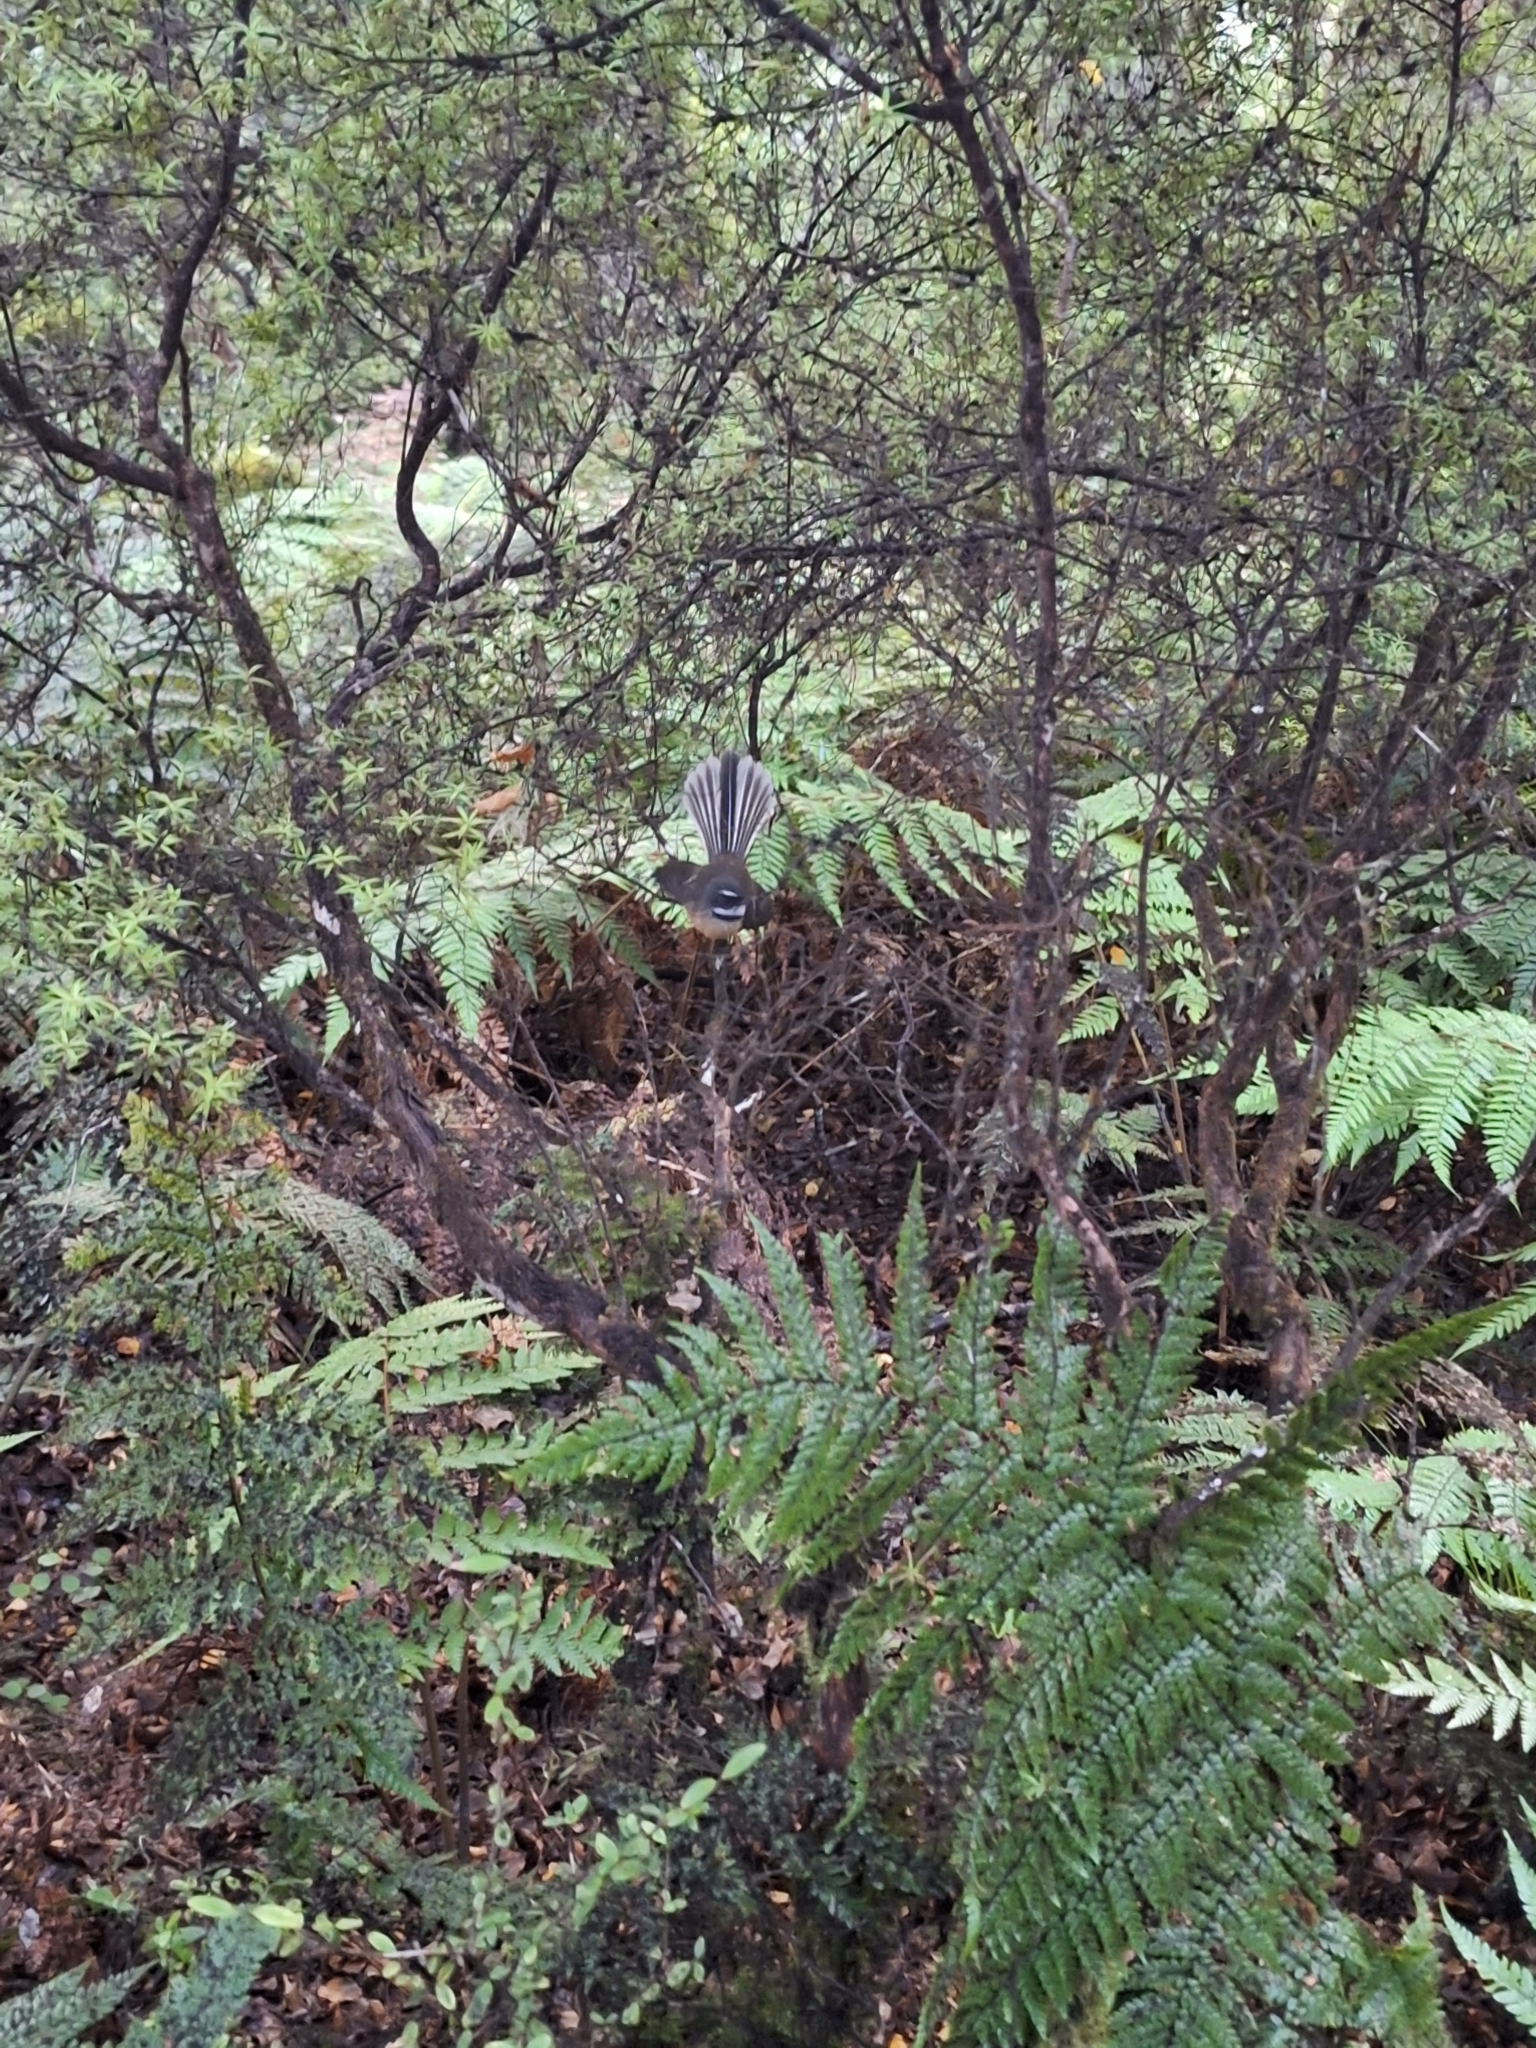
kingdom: Animalia
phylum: Chordata
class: Aves
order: Passeriformes
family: Rhipiduridae
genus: Rhipidura
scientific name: Rhipidura fuliginosa
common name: New zealand fantail
